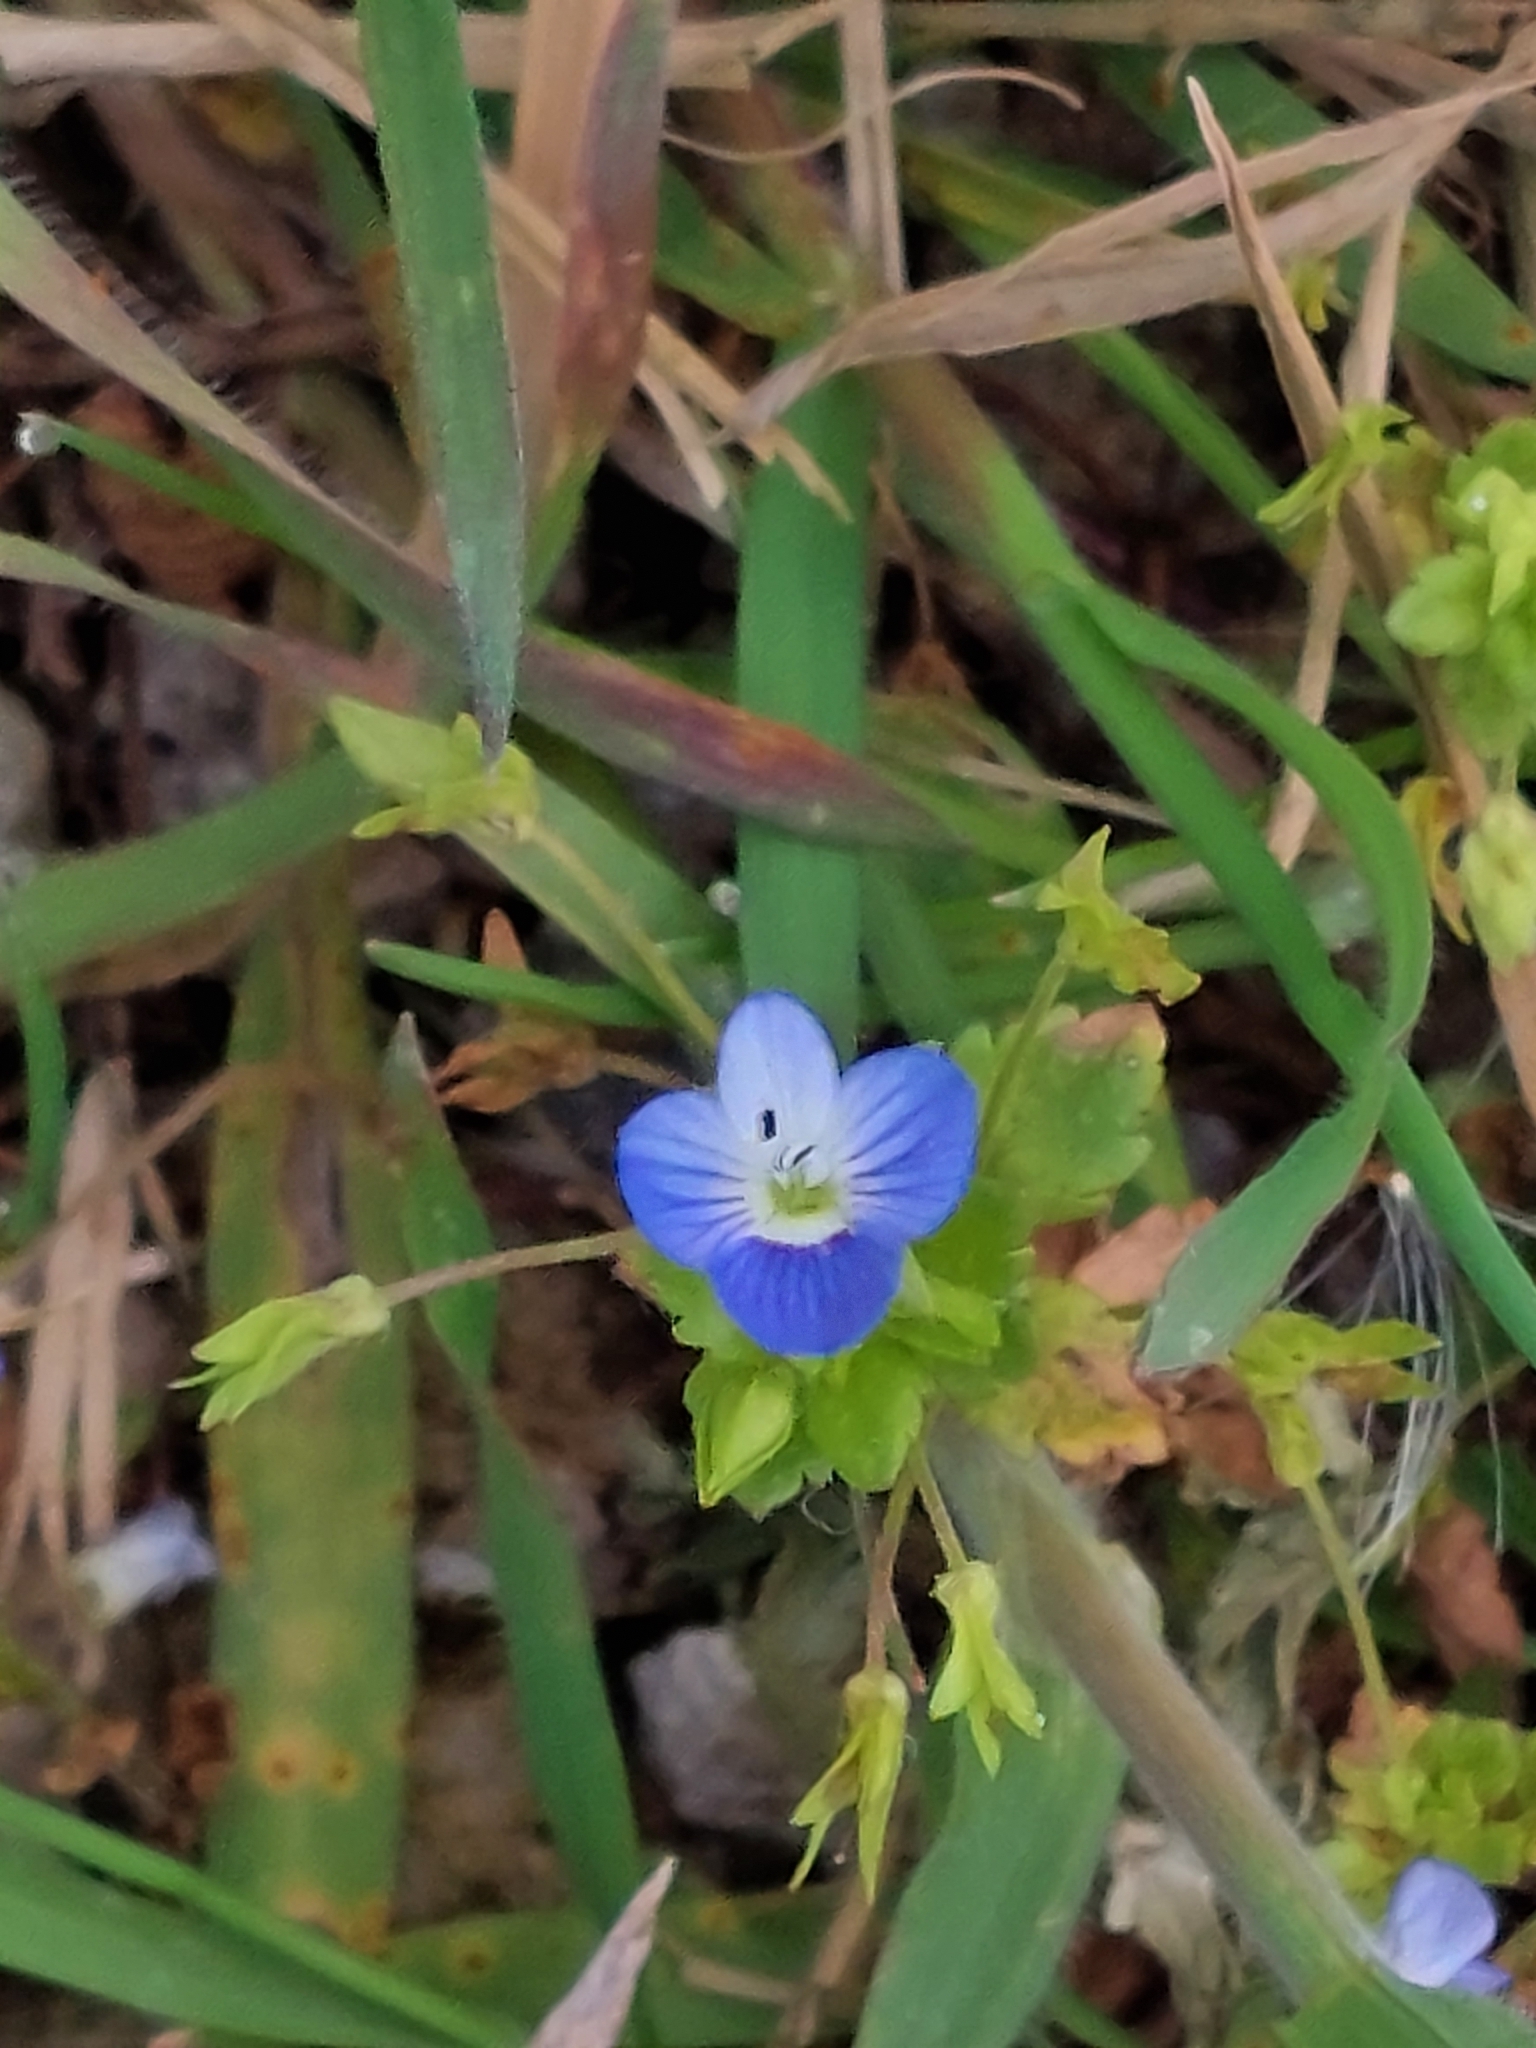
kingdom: Plantae
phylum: Tracheophyta
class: Magnoliopsida
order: Lamiales
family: Plantaginaceae
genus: Veronica
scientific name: Veronica persica
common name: Common field-speedwell
